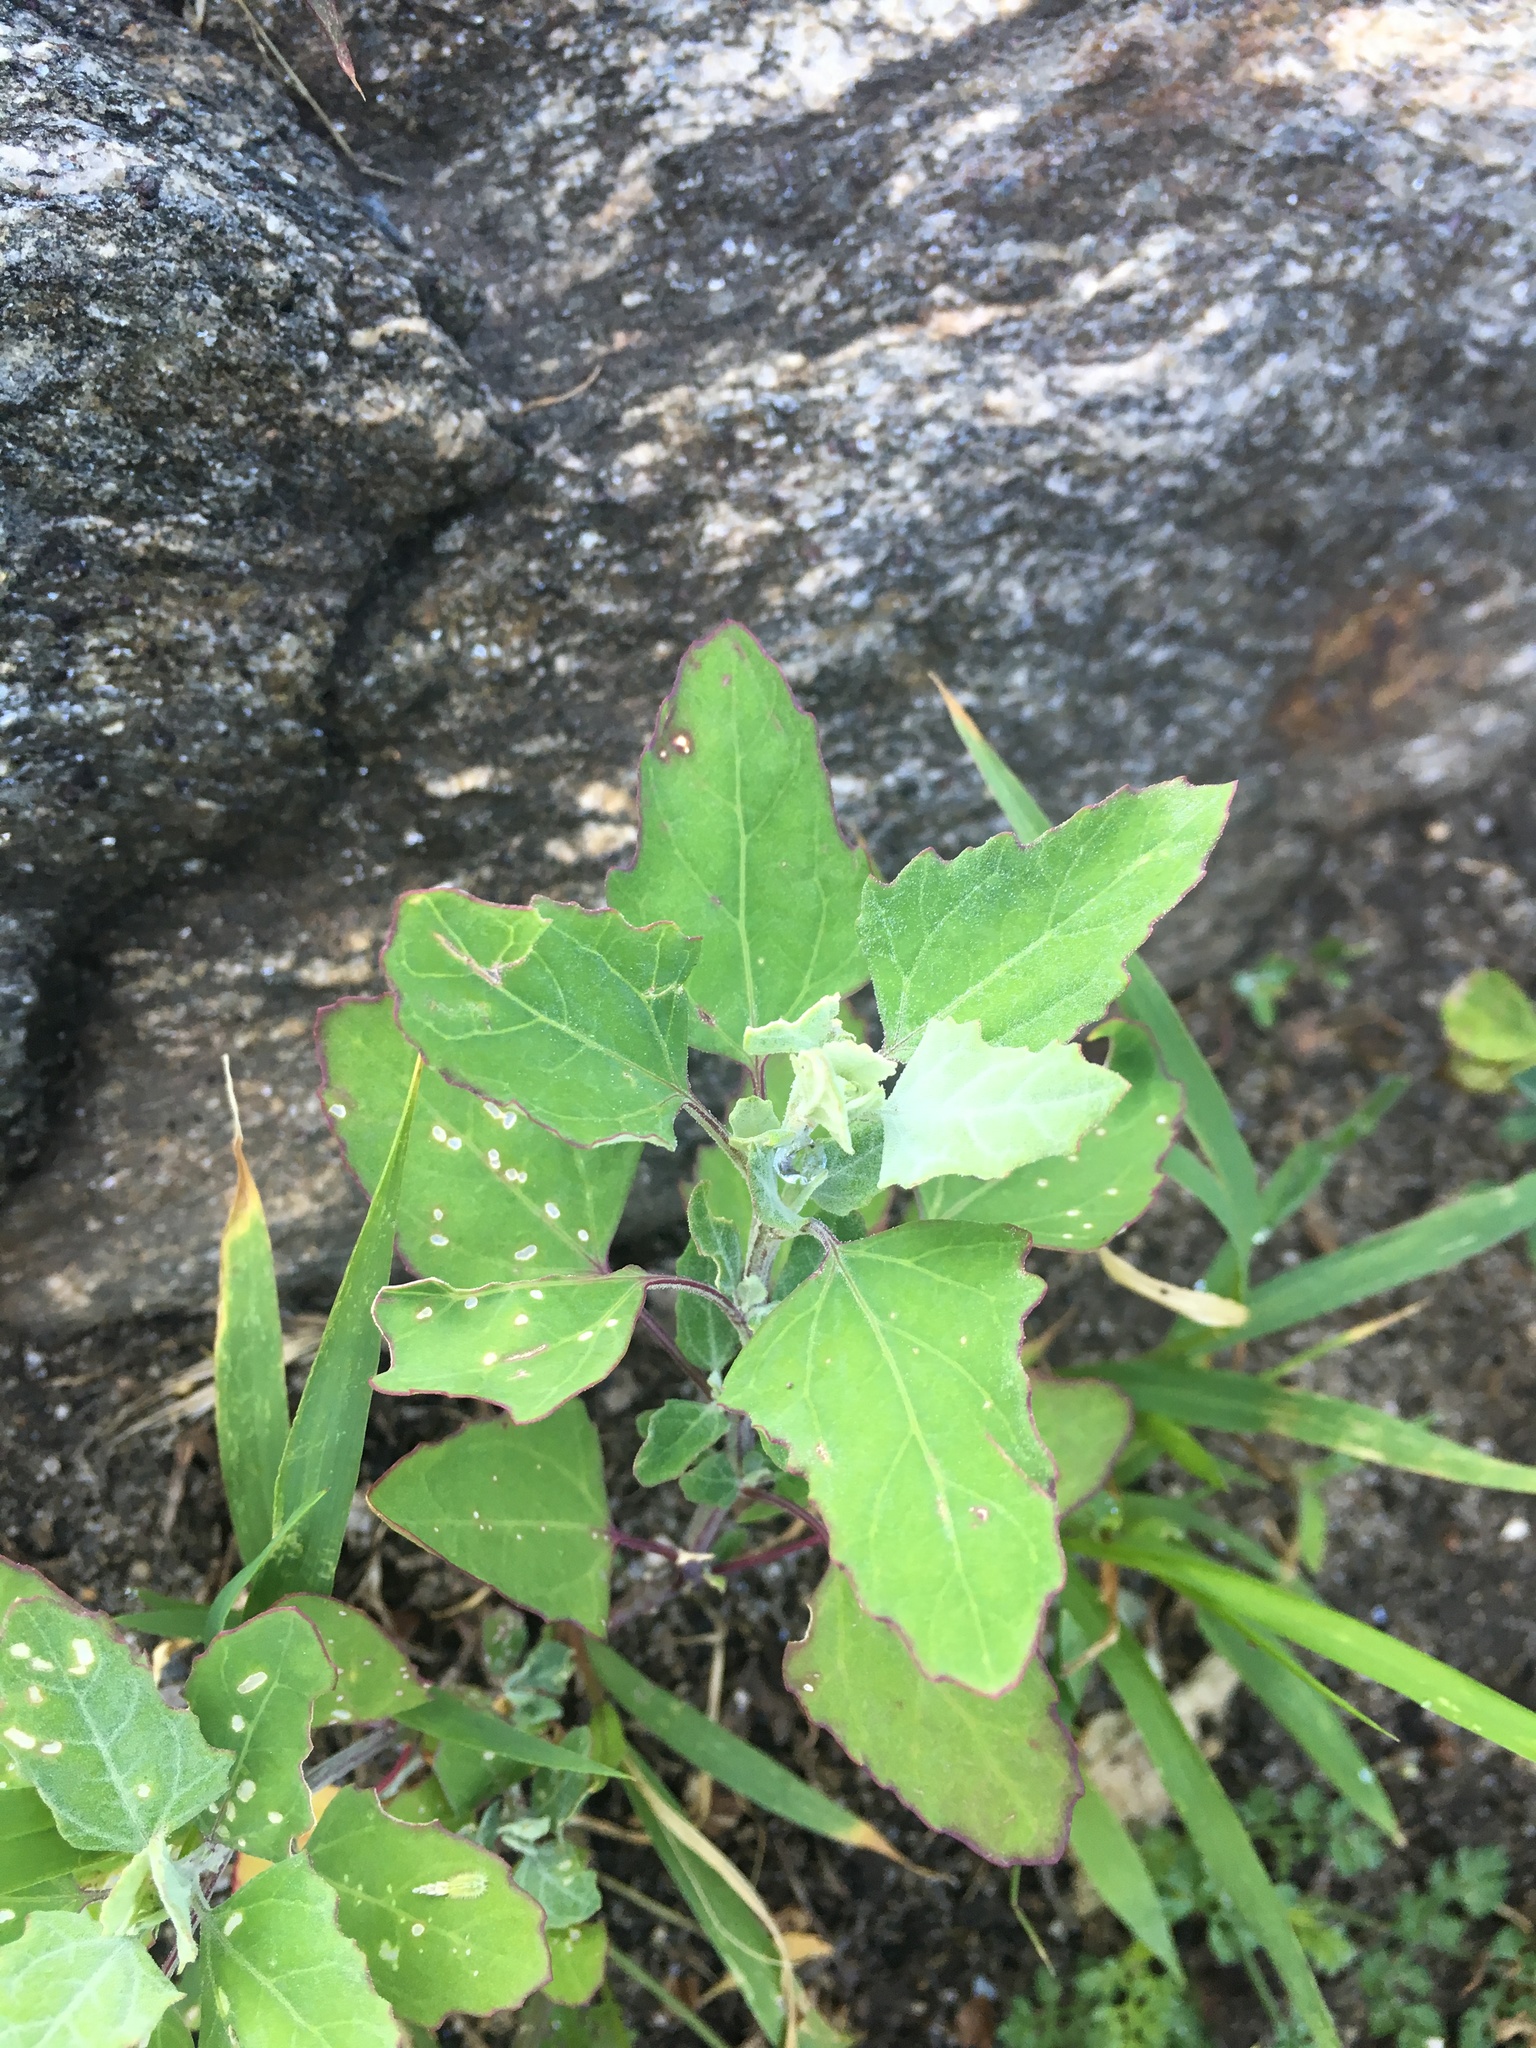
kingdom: Plantae
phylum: Tracheophyta
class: Magnoliopsida
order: Caryophyllales
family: Amaranthaceae
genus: Chenopodium
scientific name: Chenopodium album
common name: Fat-hen
